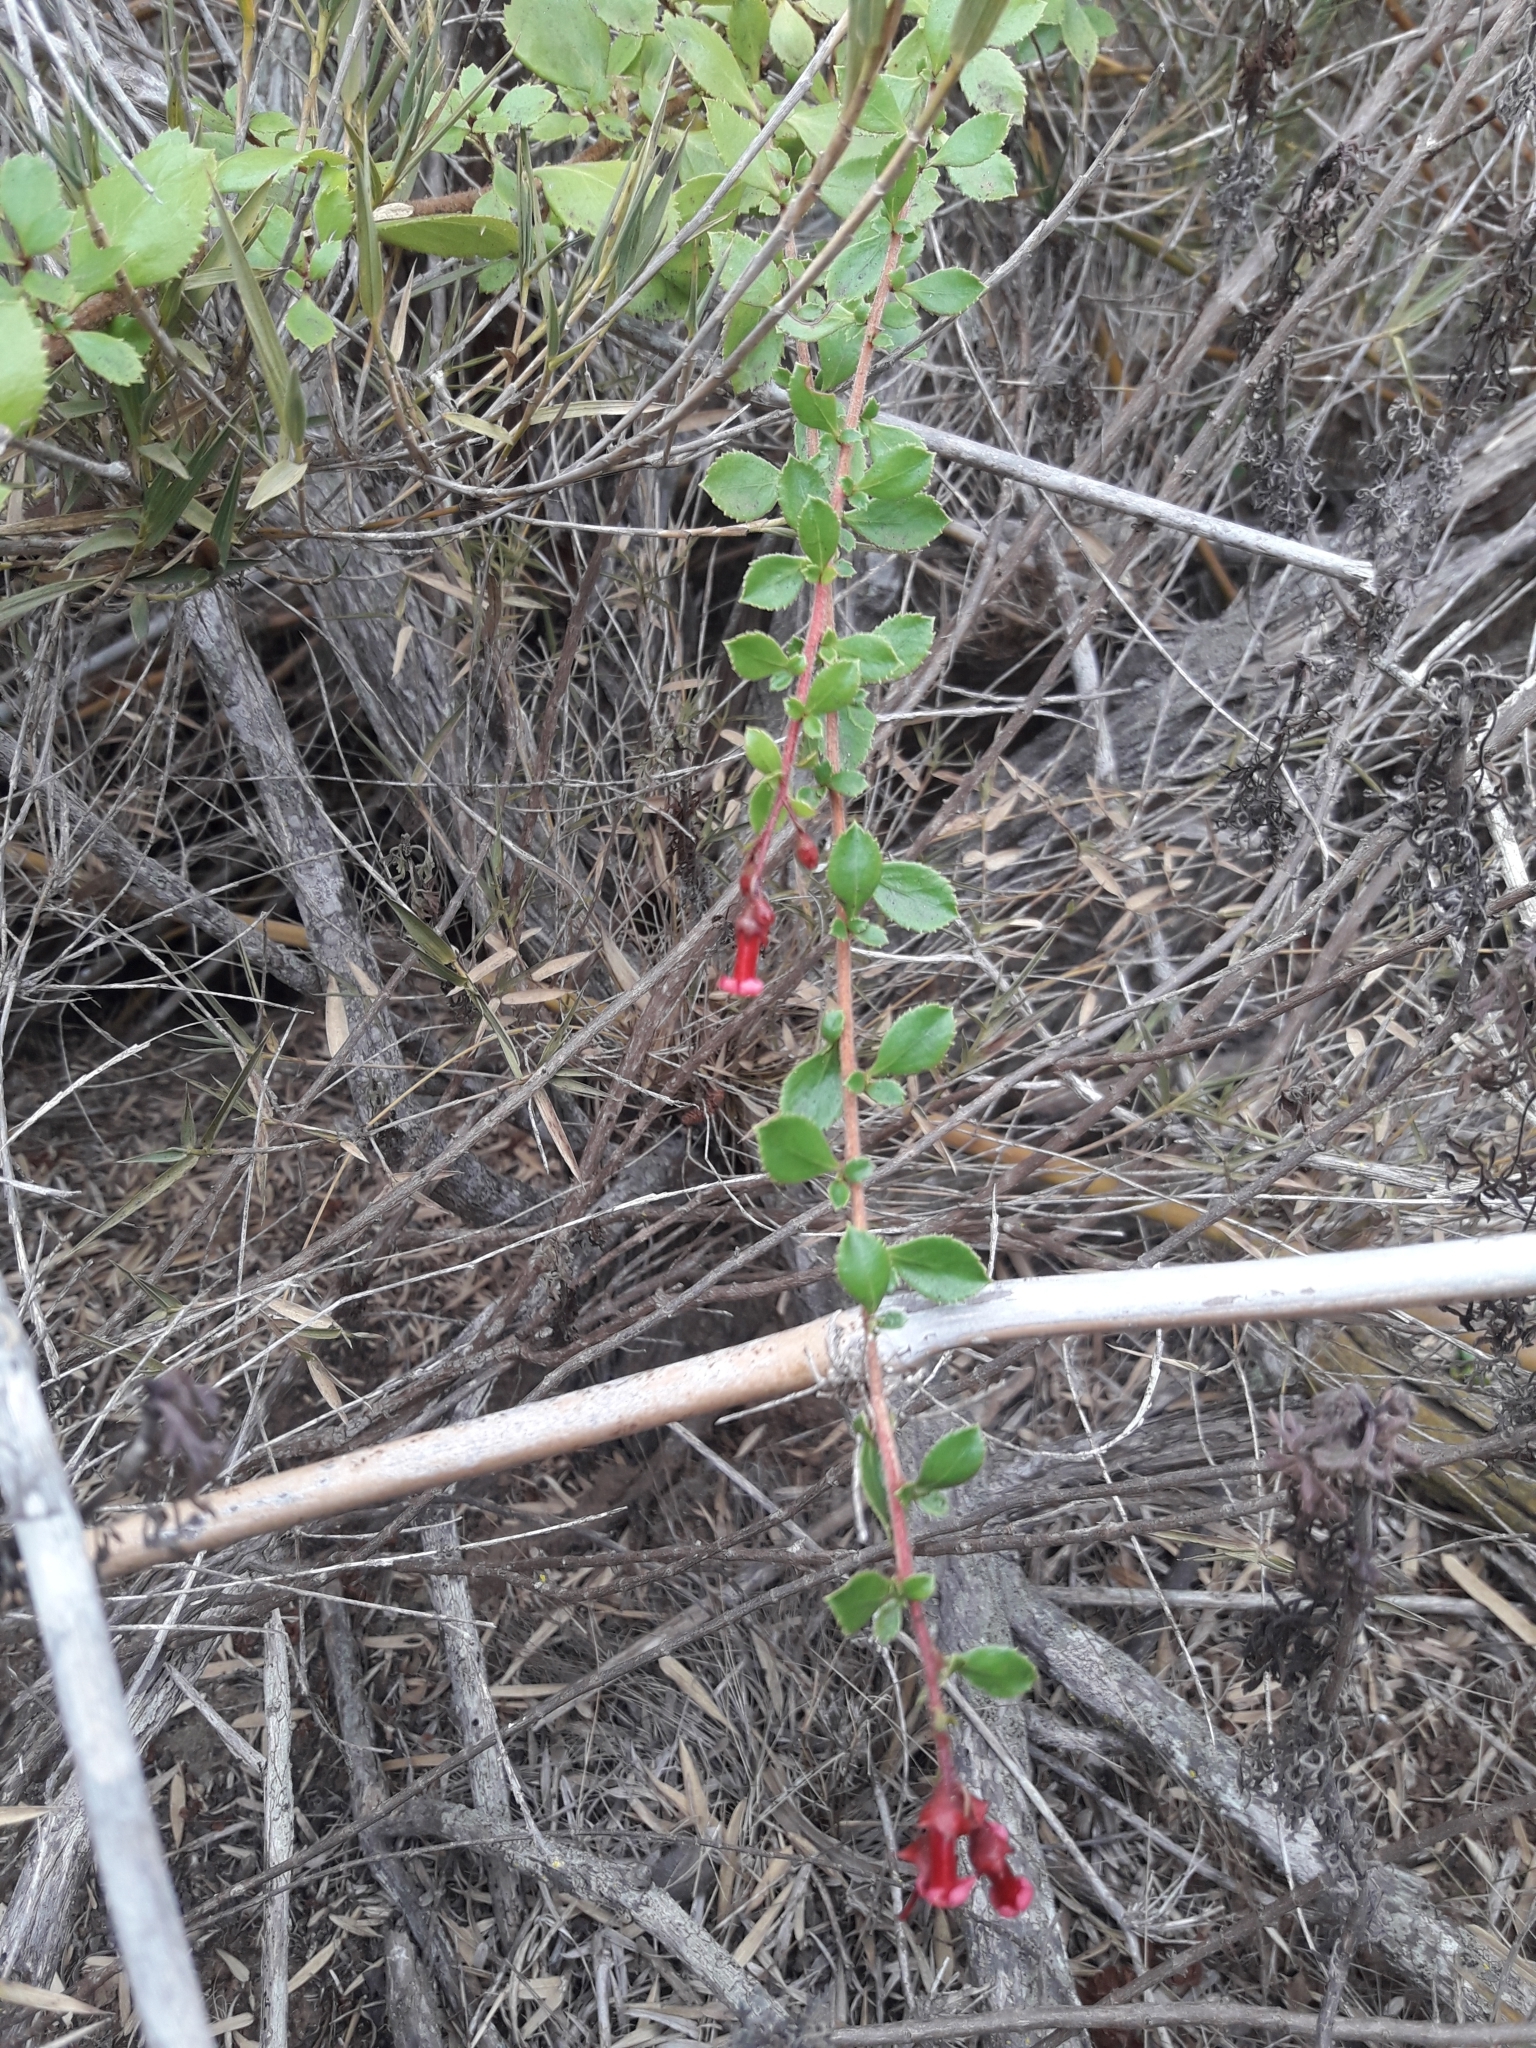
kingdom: Plantae
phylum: Tracheophyta
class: Magnoliopsida
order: Escalloniales
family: Escalloniaceae
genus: Escallonia
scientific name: Escallonia rubra
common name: Redclaws
